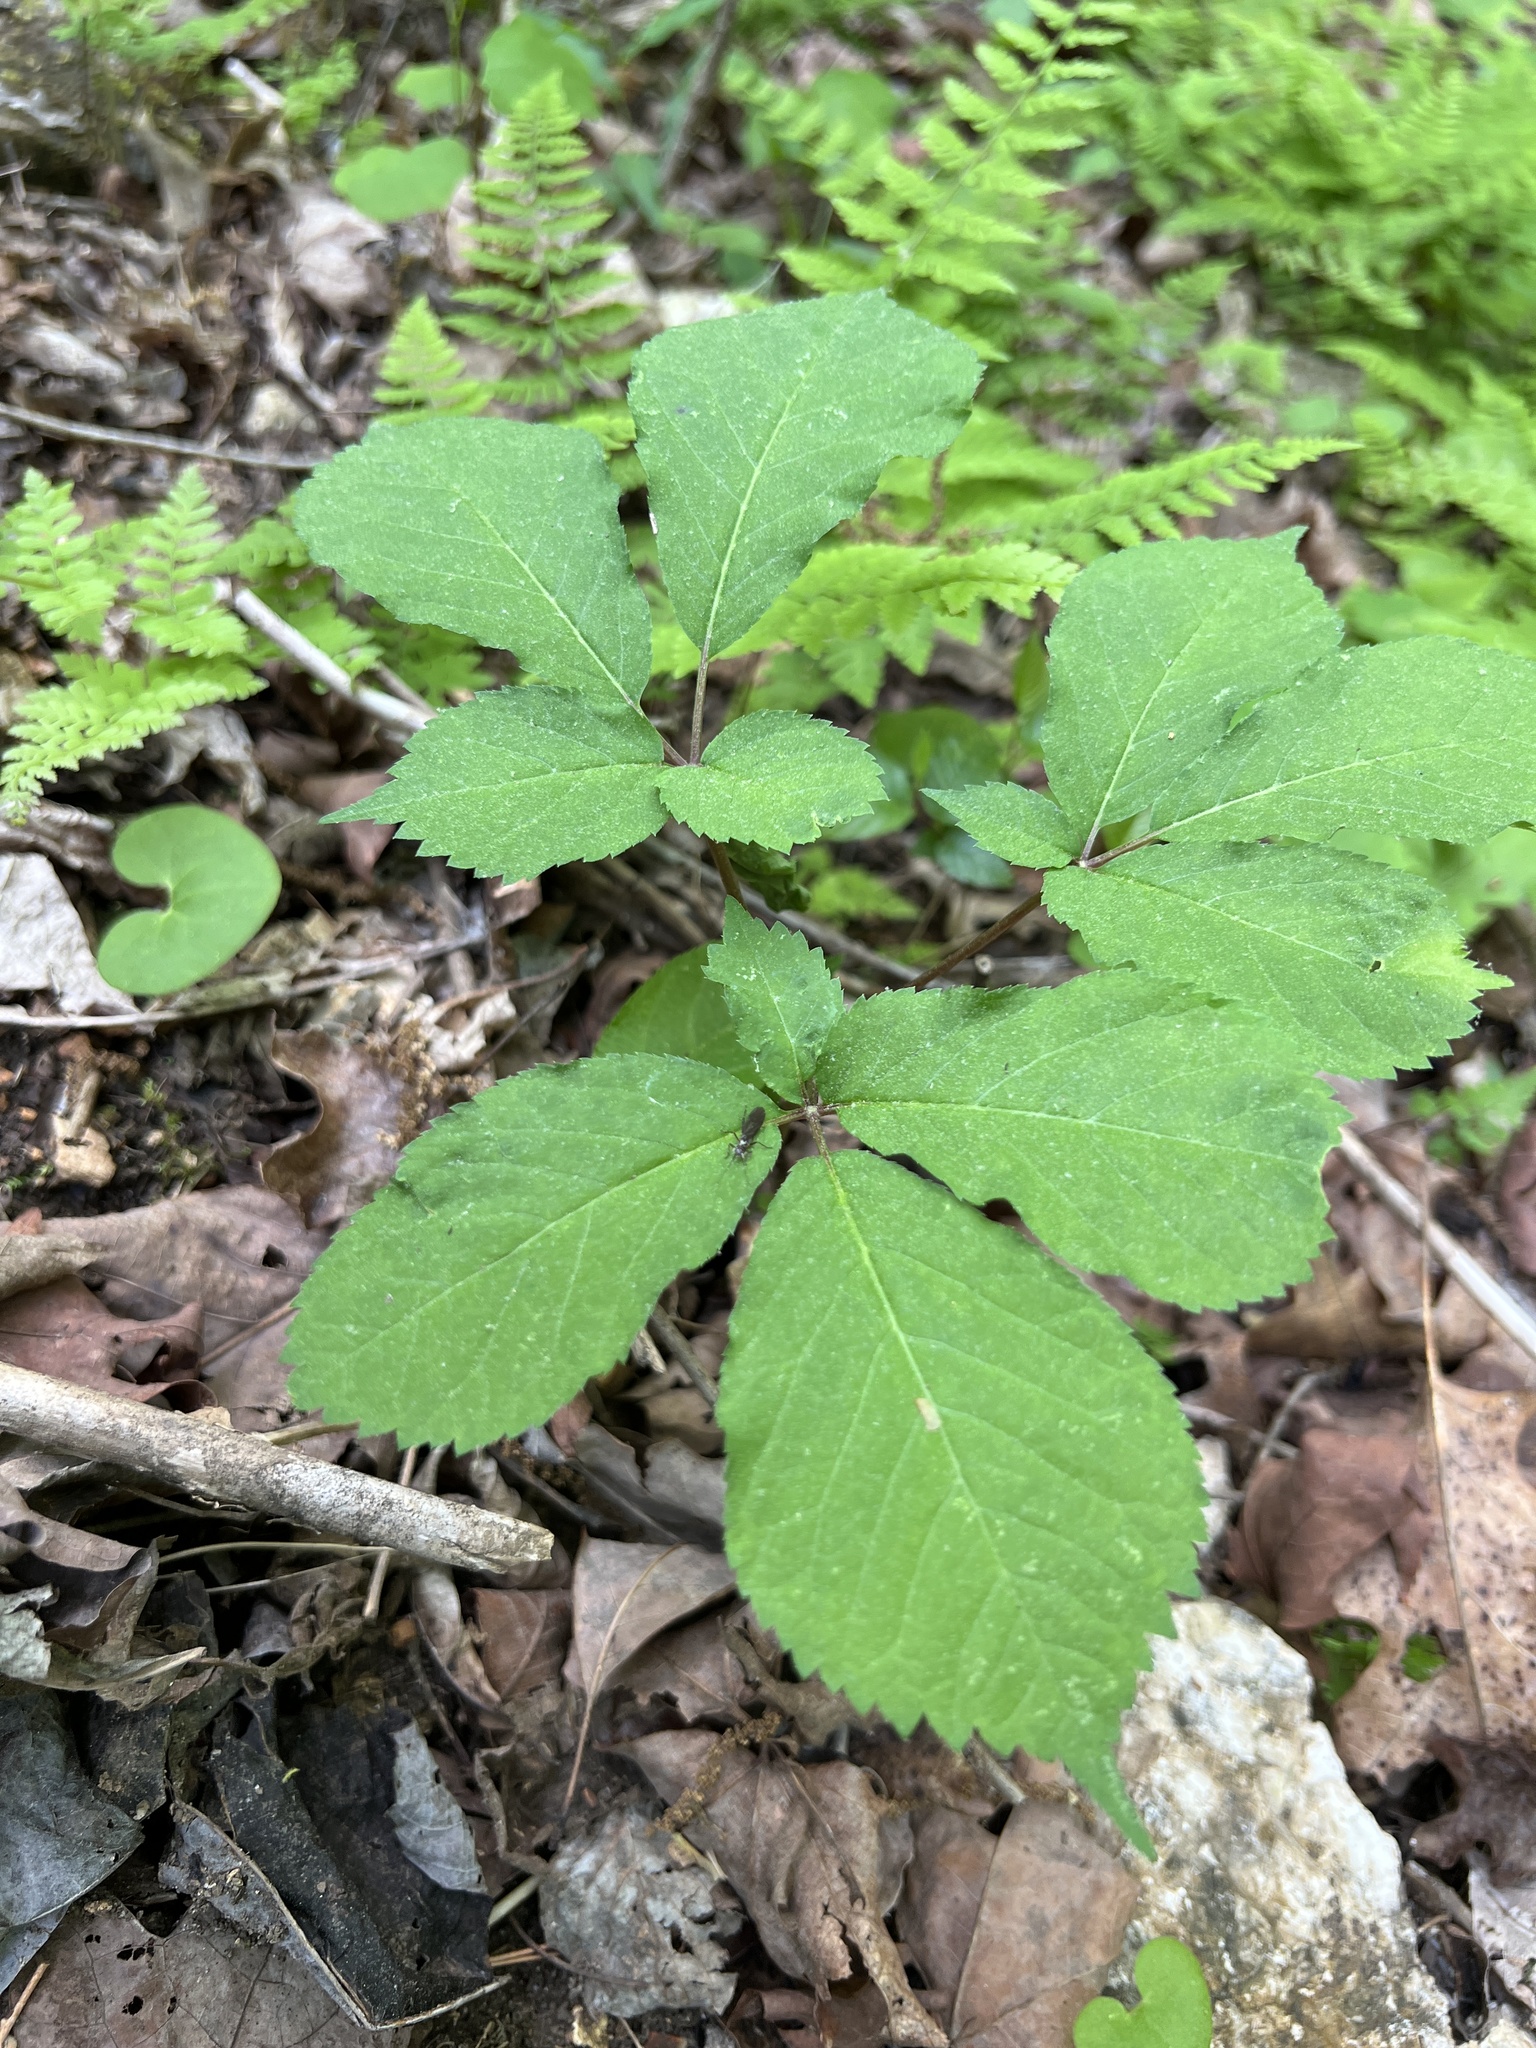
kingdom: Plantae
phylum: Tracheophyta
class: Magnoliopsida
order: Apiales
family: Araliaceae
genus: Panax
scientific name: Panax quinquefolius
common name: American ginseng
